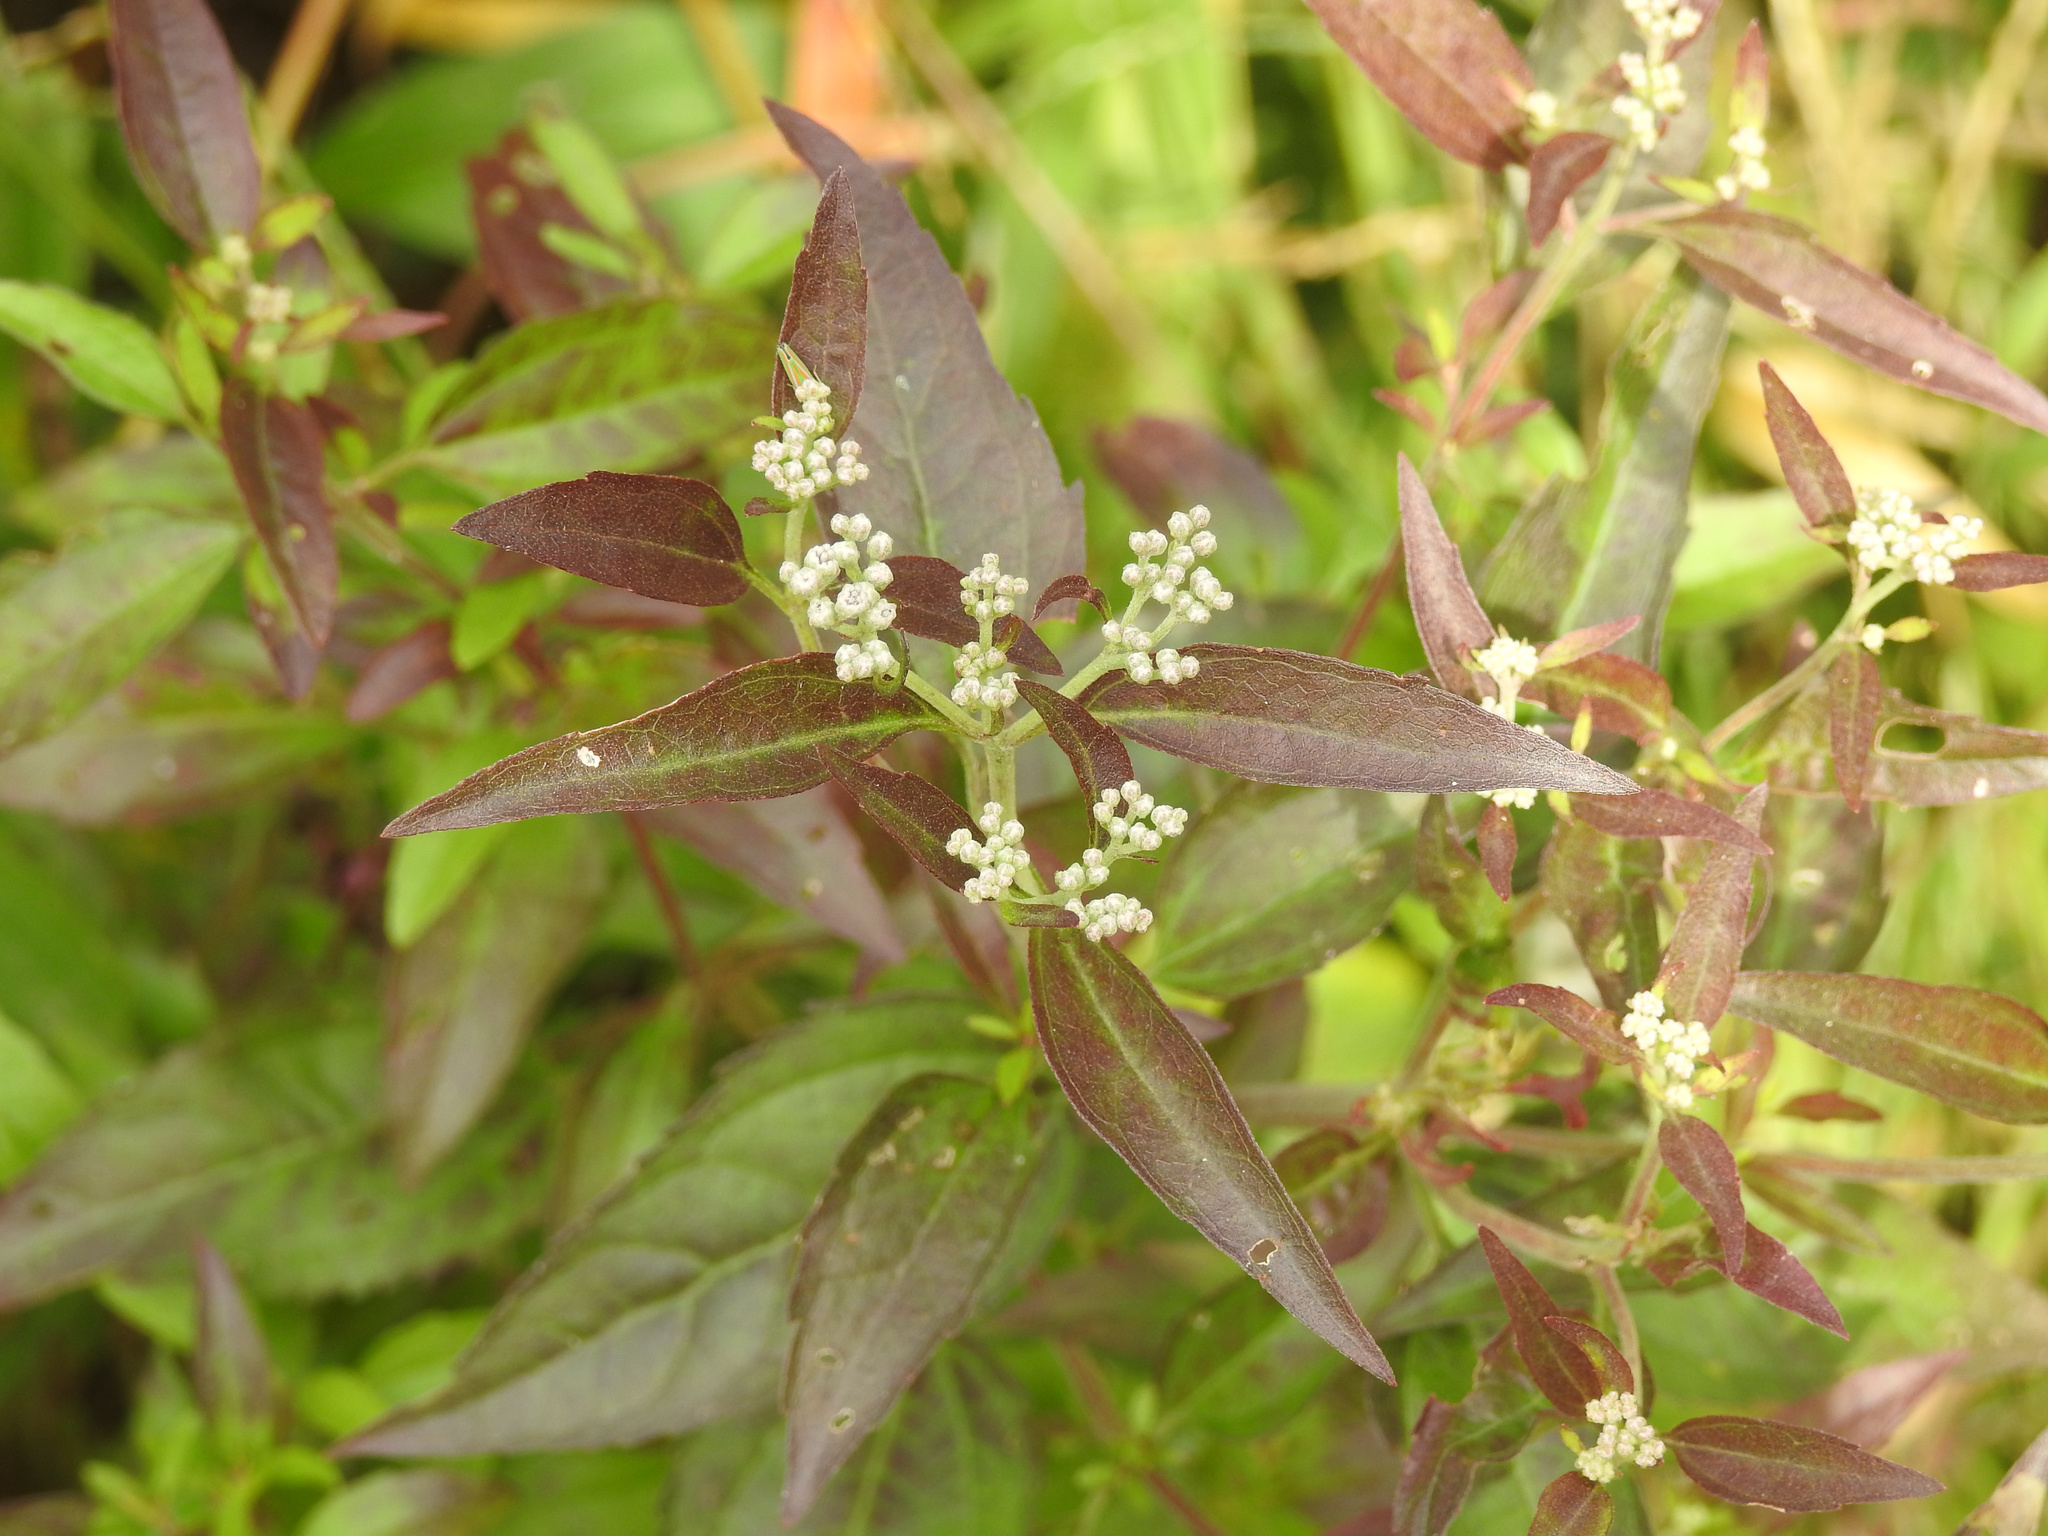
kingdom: Plantae
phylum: Tracheophyta
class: Magnoliopsida
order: Asterales
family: Asteraceae
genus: Eupatorium
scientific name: Eupatorium serotinum
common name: Late boneset
